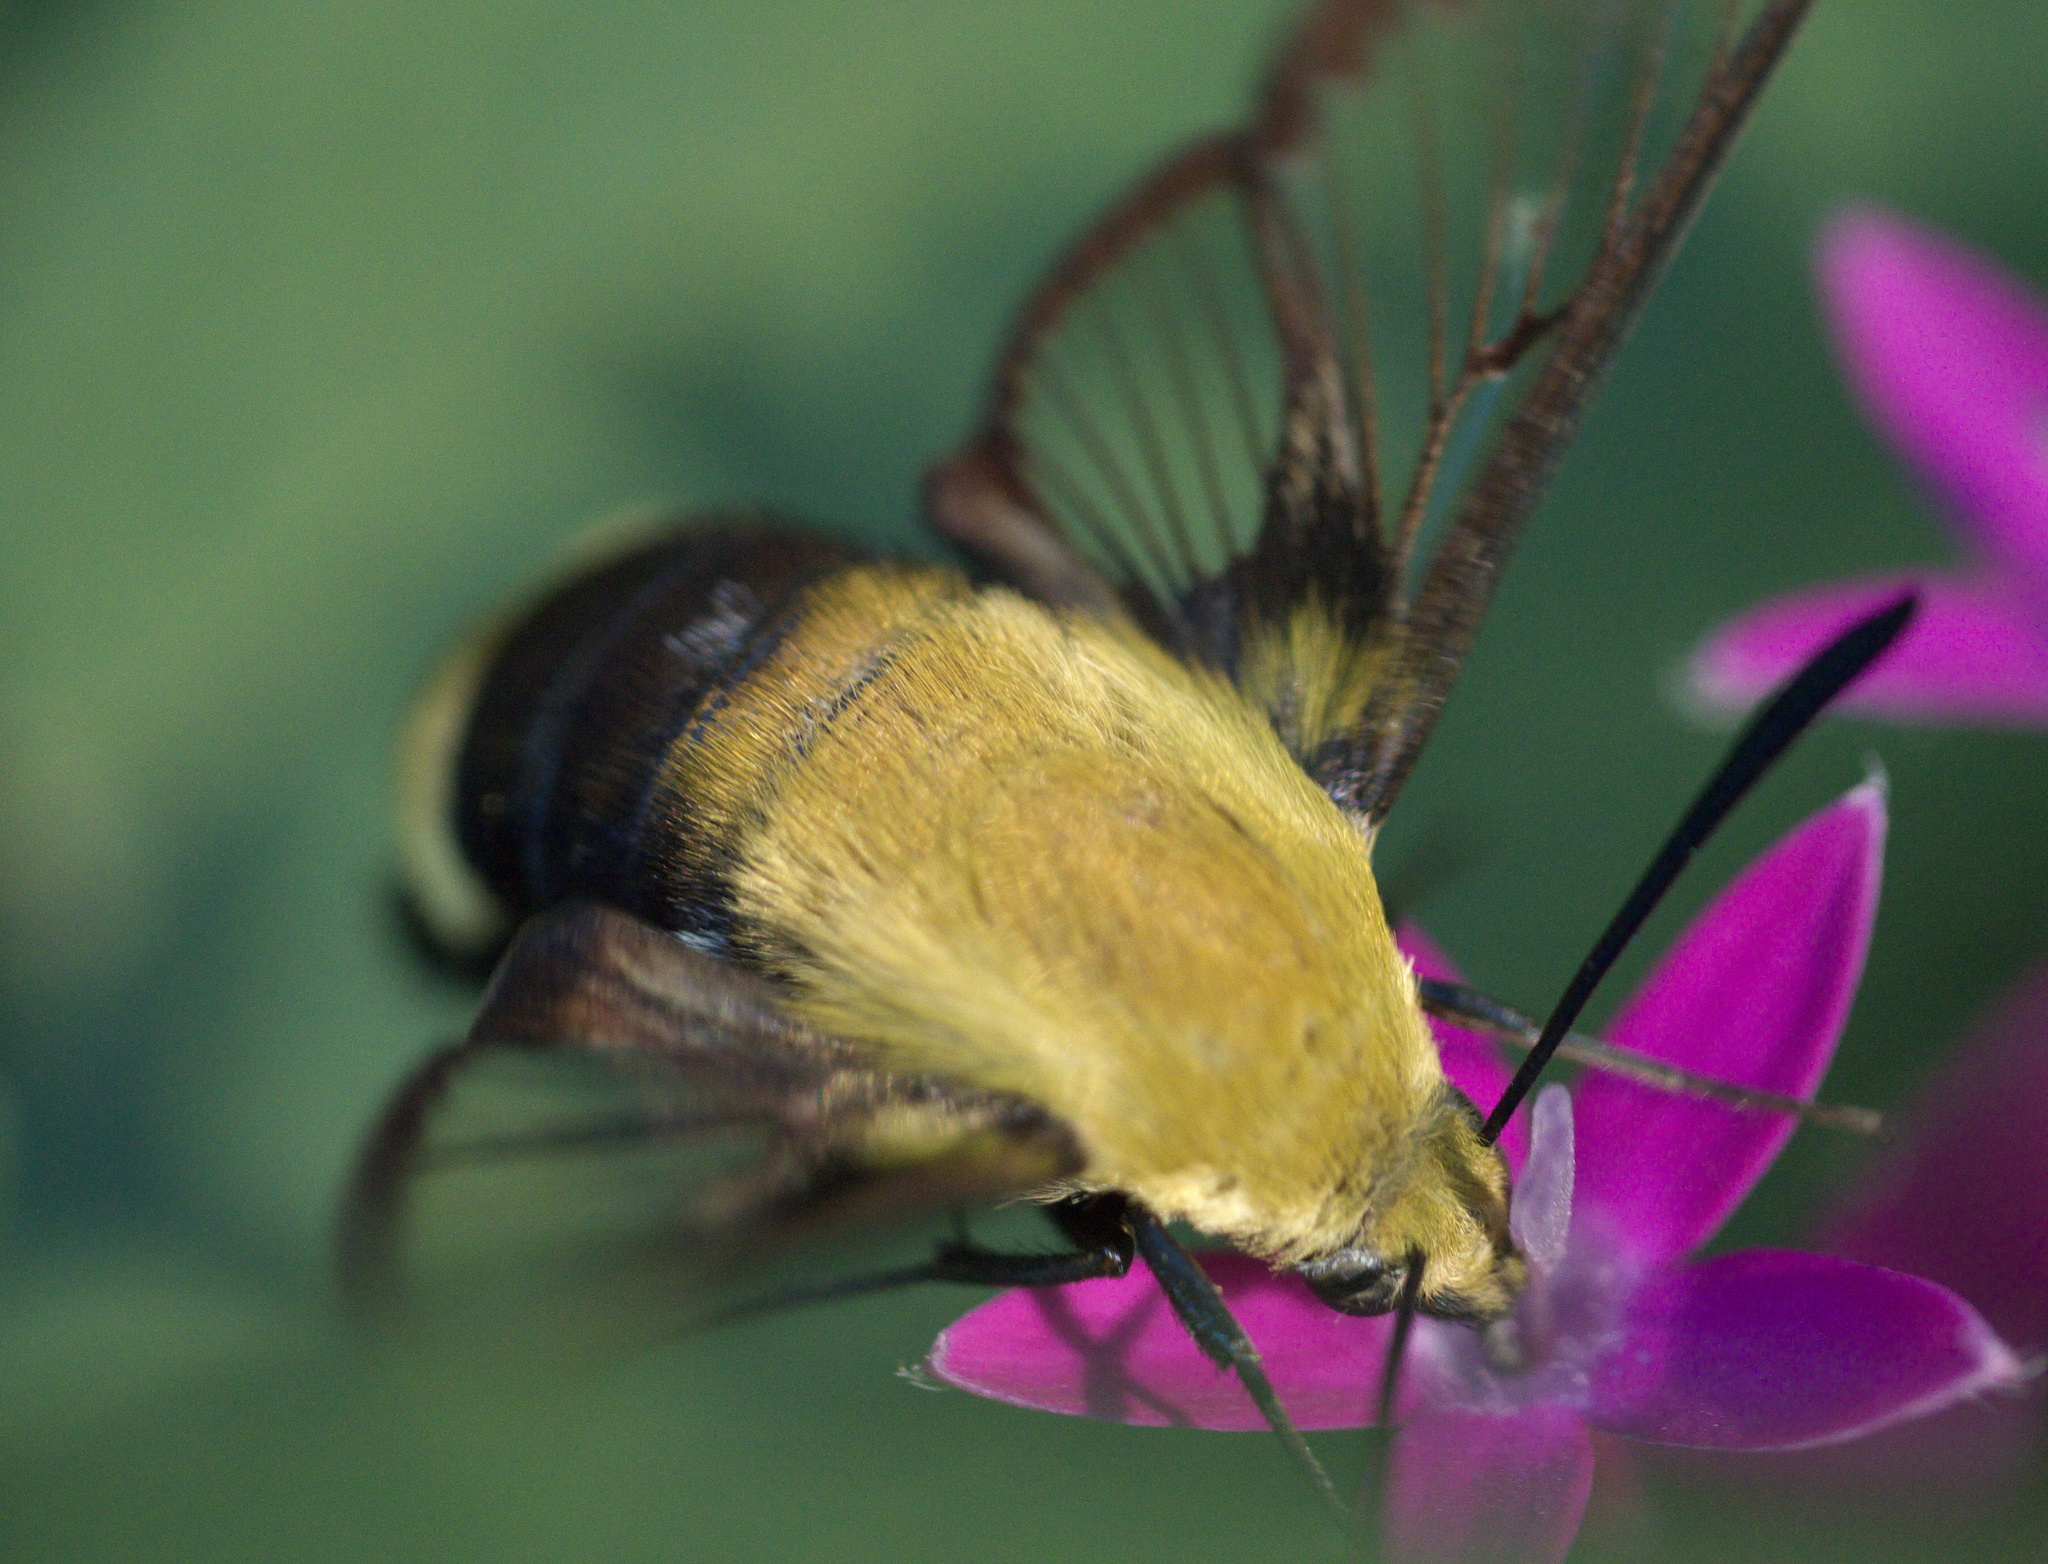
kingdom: Animalia
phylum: Arthropoda
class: Insecta
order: Lepidoptera
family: Sphingidae
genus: Hemaris
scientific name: Hemaris diffinis
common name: Bumblebee moth
